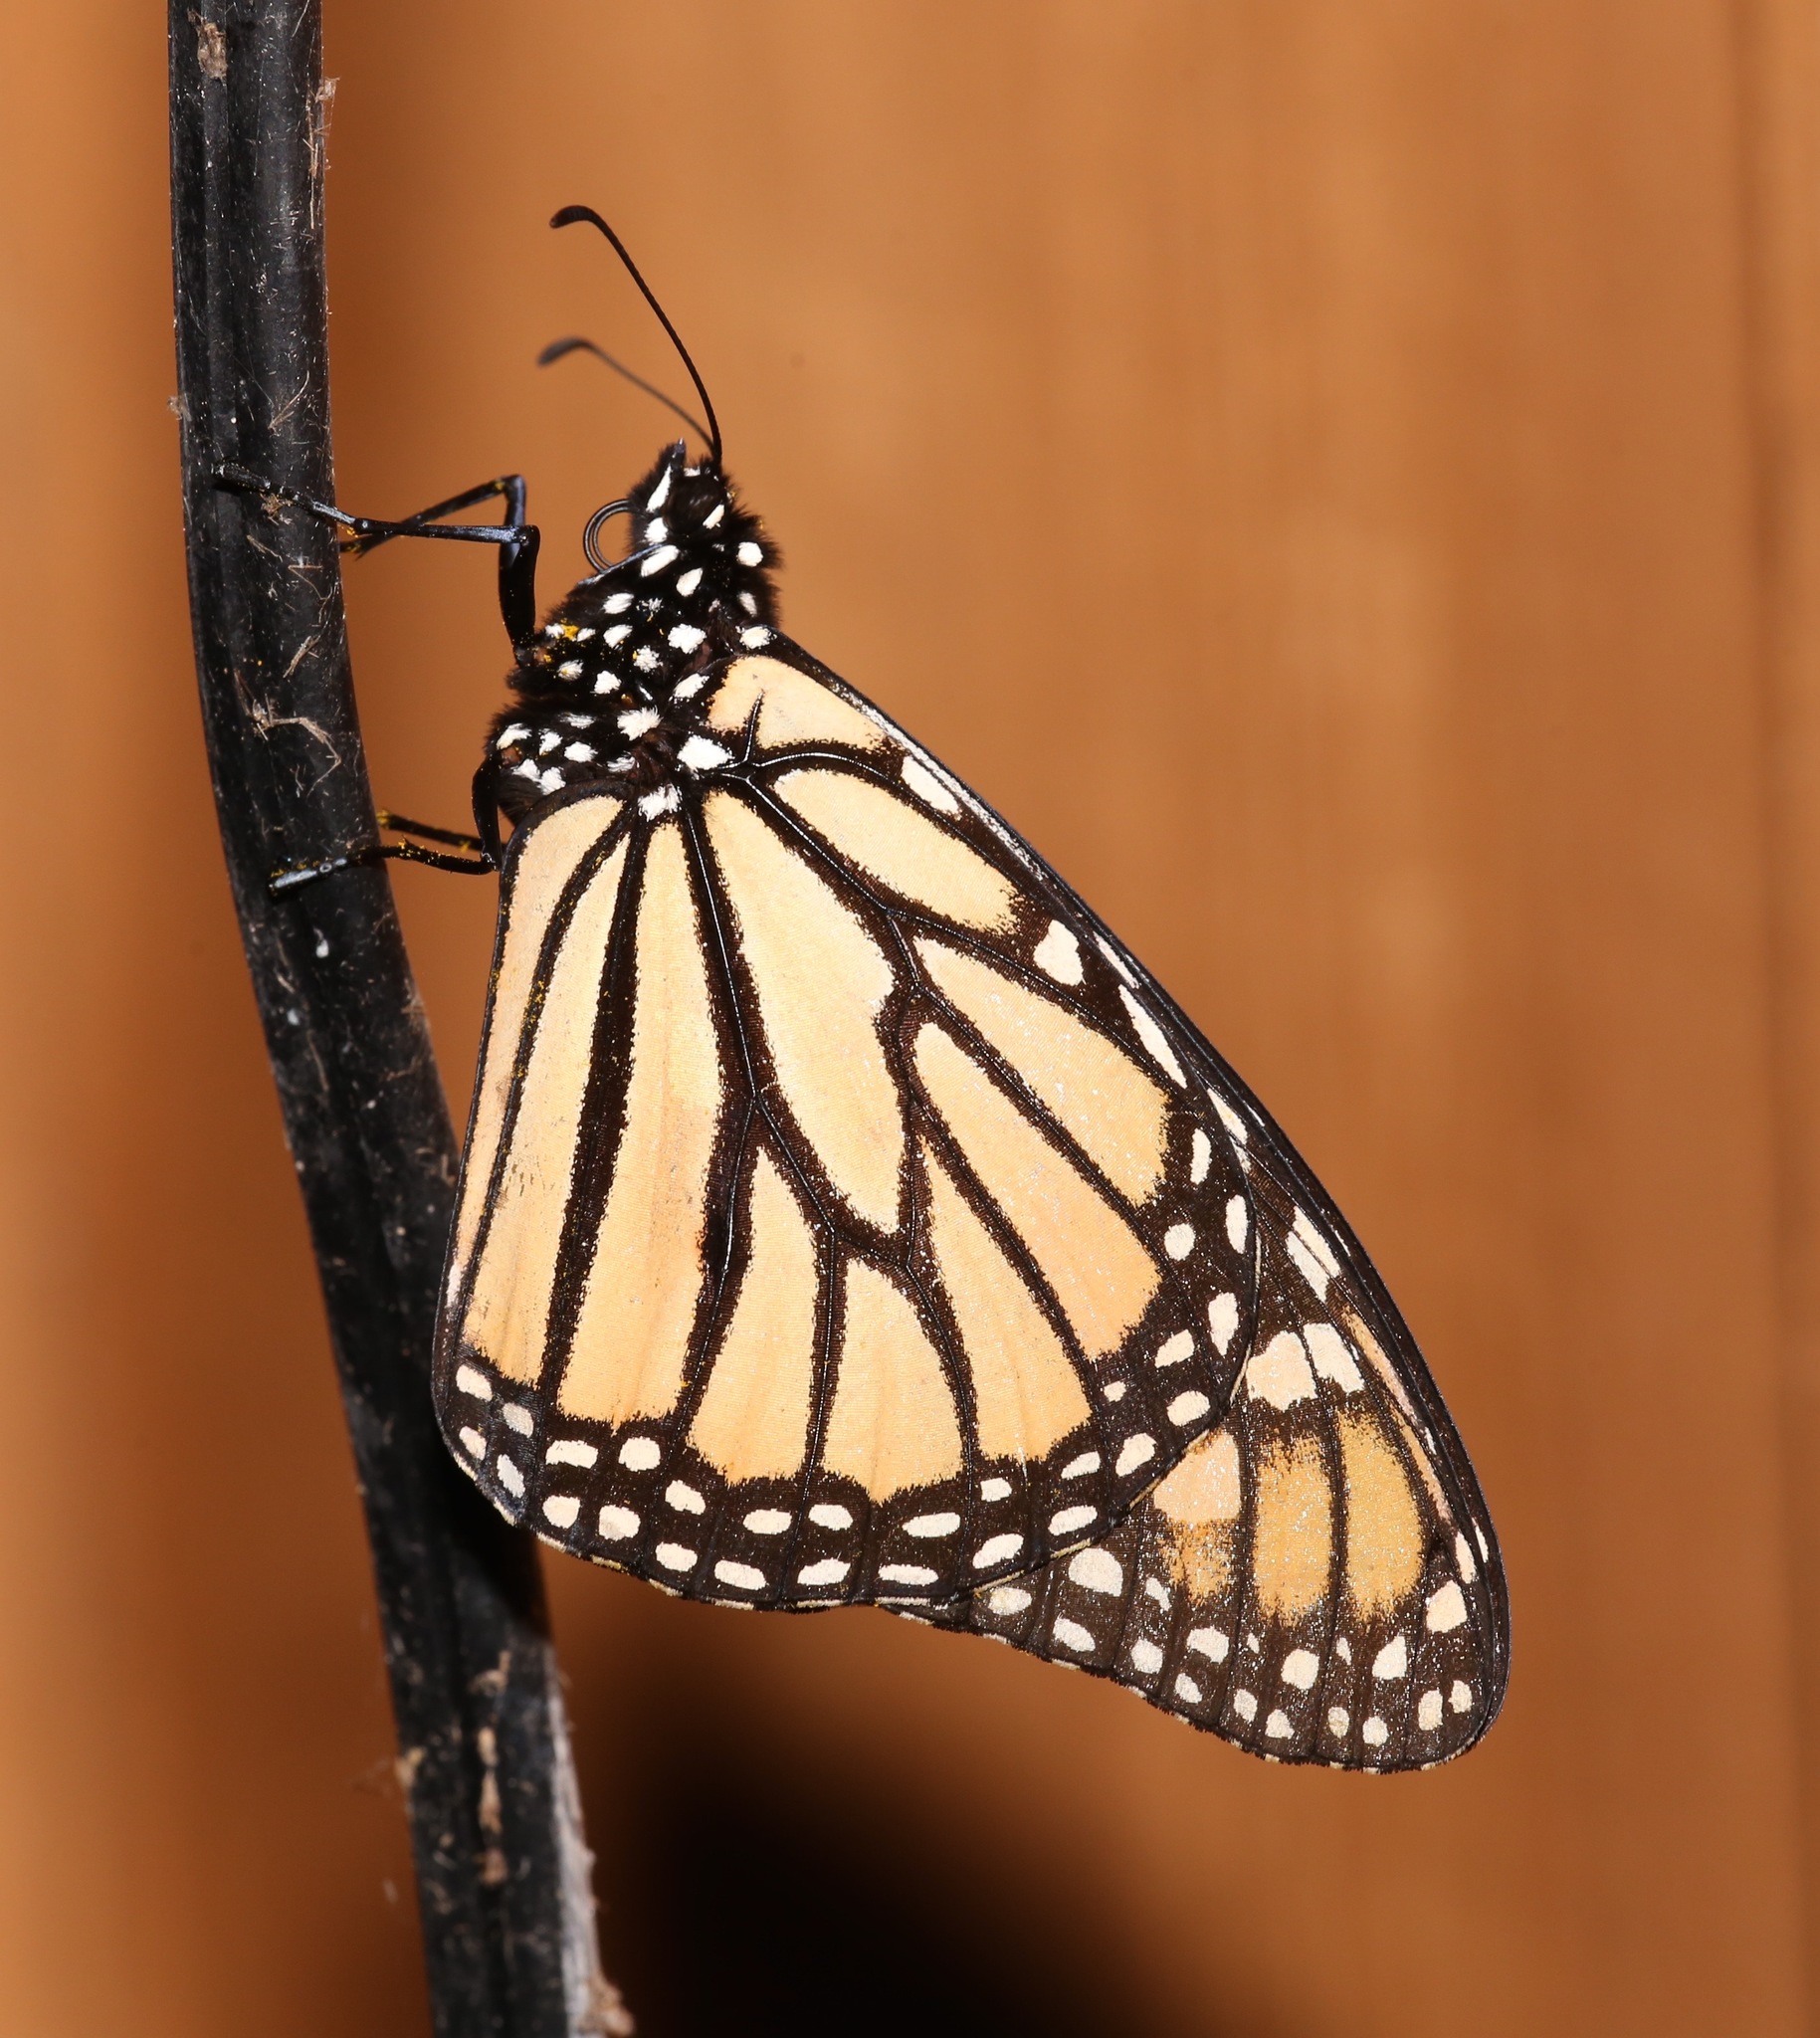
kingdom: Animalia
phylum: Arthropoda
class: Insecta
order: Lepidoptera
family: Nymphalidae
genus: Danaus
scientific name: Danaus plexippus
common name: Monarch
